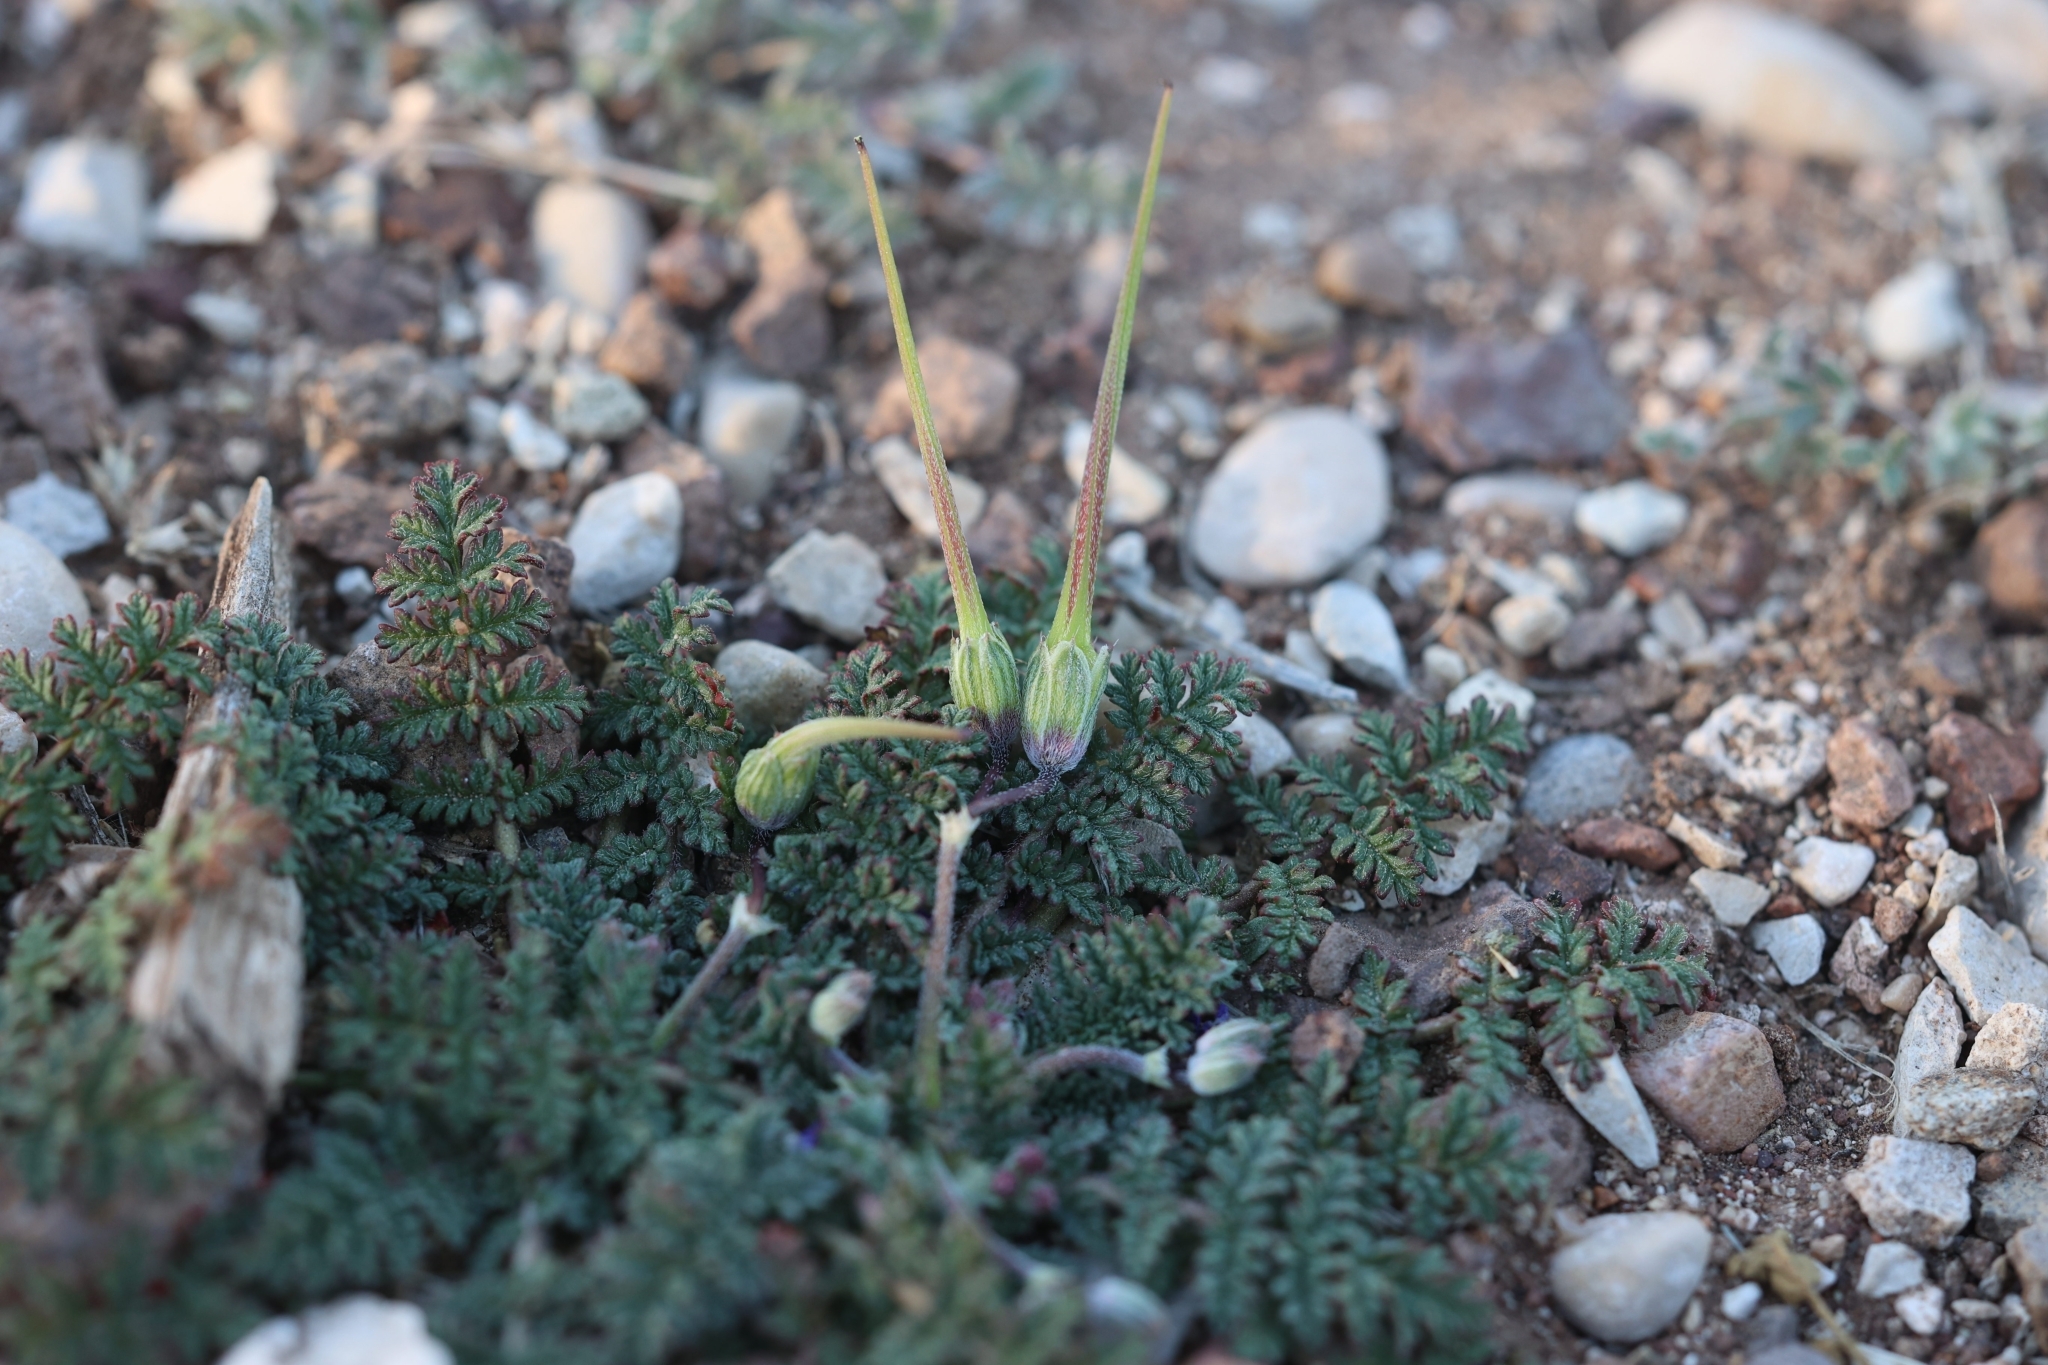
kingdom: Plantae
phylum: Tracheophyta
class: Magnoliopsida
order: Geraniales
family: Geraniaceae
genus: Erodium
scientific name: Erodium cicutarium
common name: Common stork's-bill
